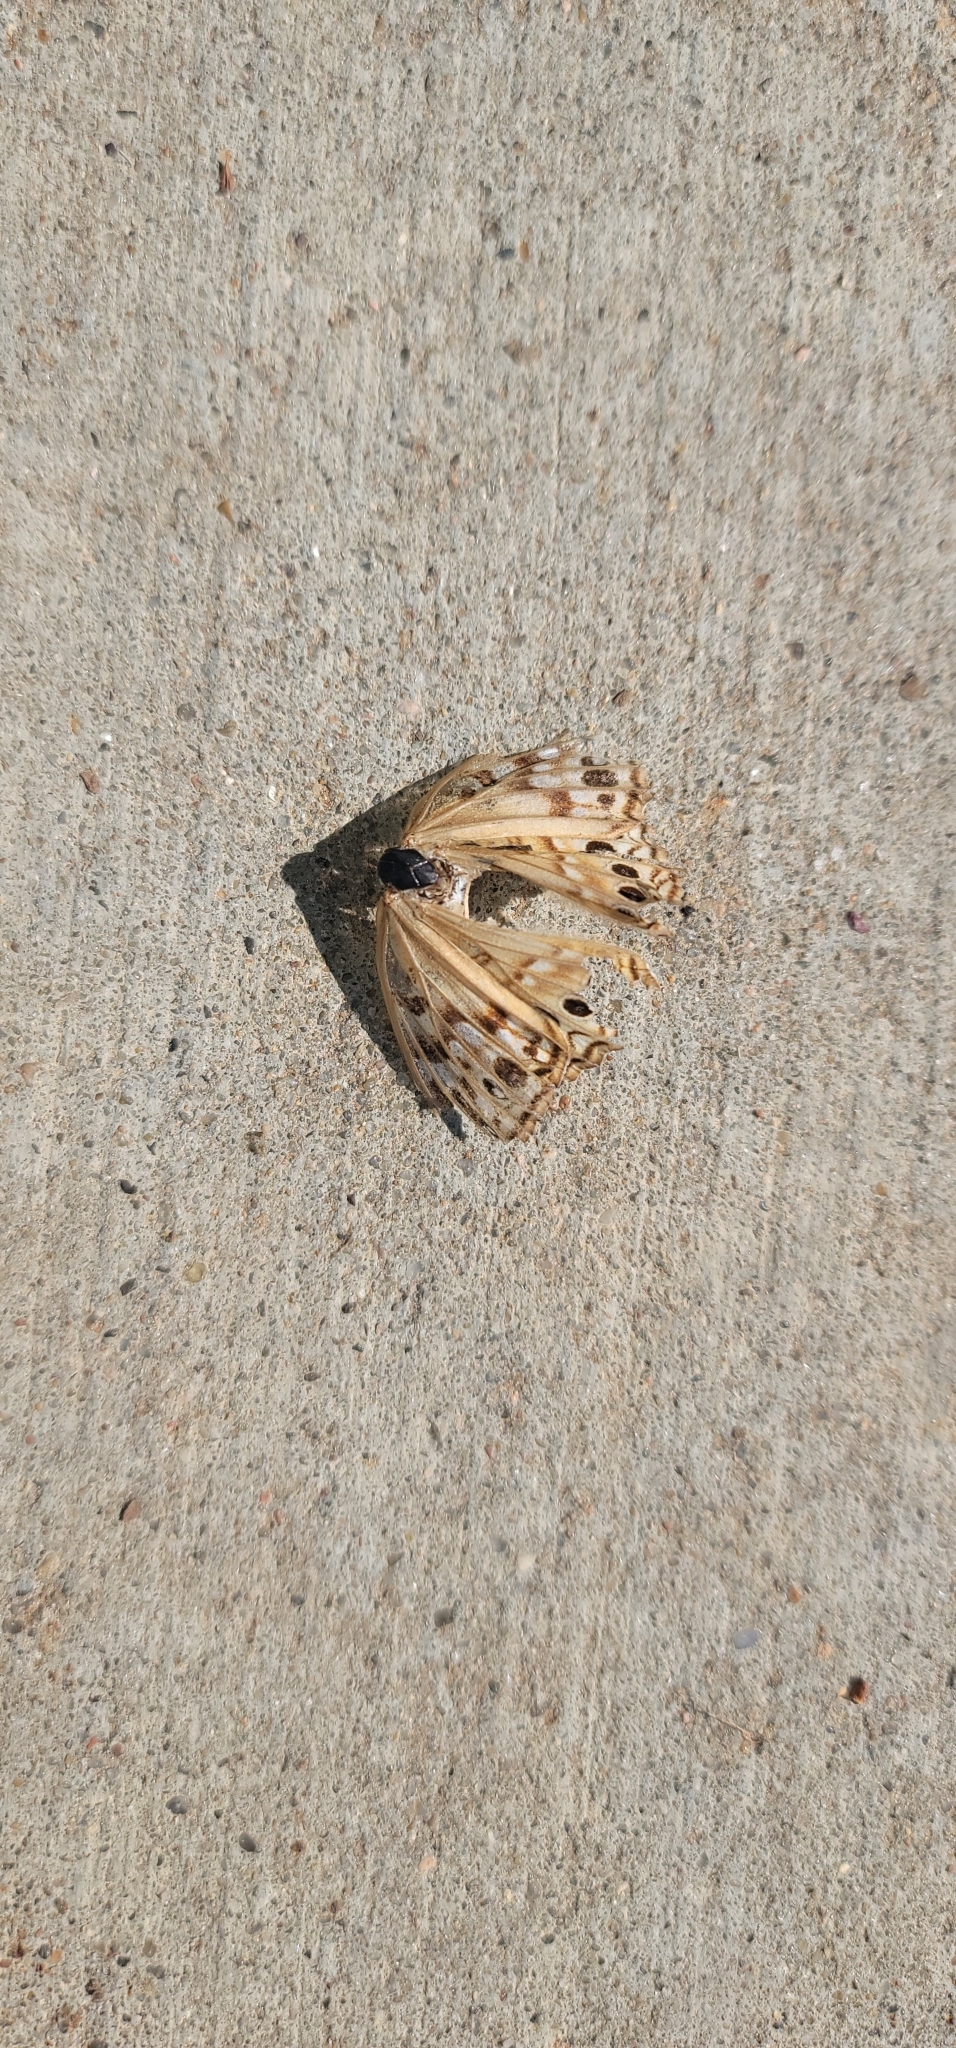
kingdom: Animalia
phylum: Arthropoda
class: Insecta
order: Lepidoptera
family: Nymphalidae
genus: Asterocampa
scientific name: Asterocampa celtis
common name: Hackberry emperor
